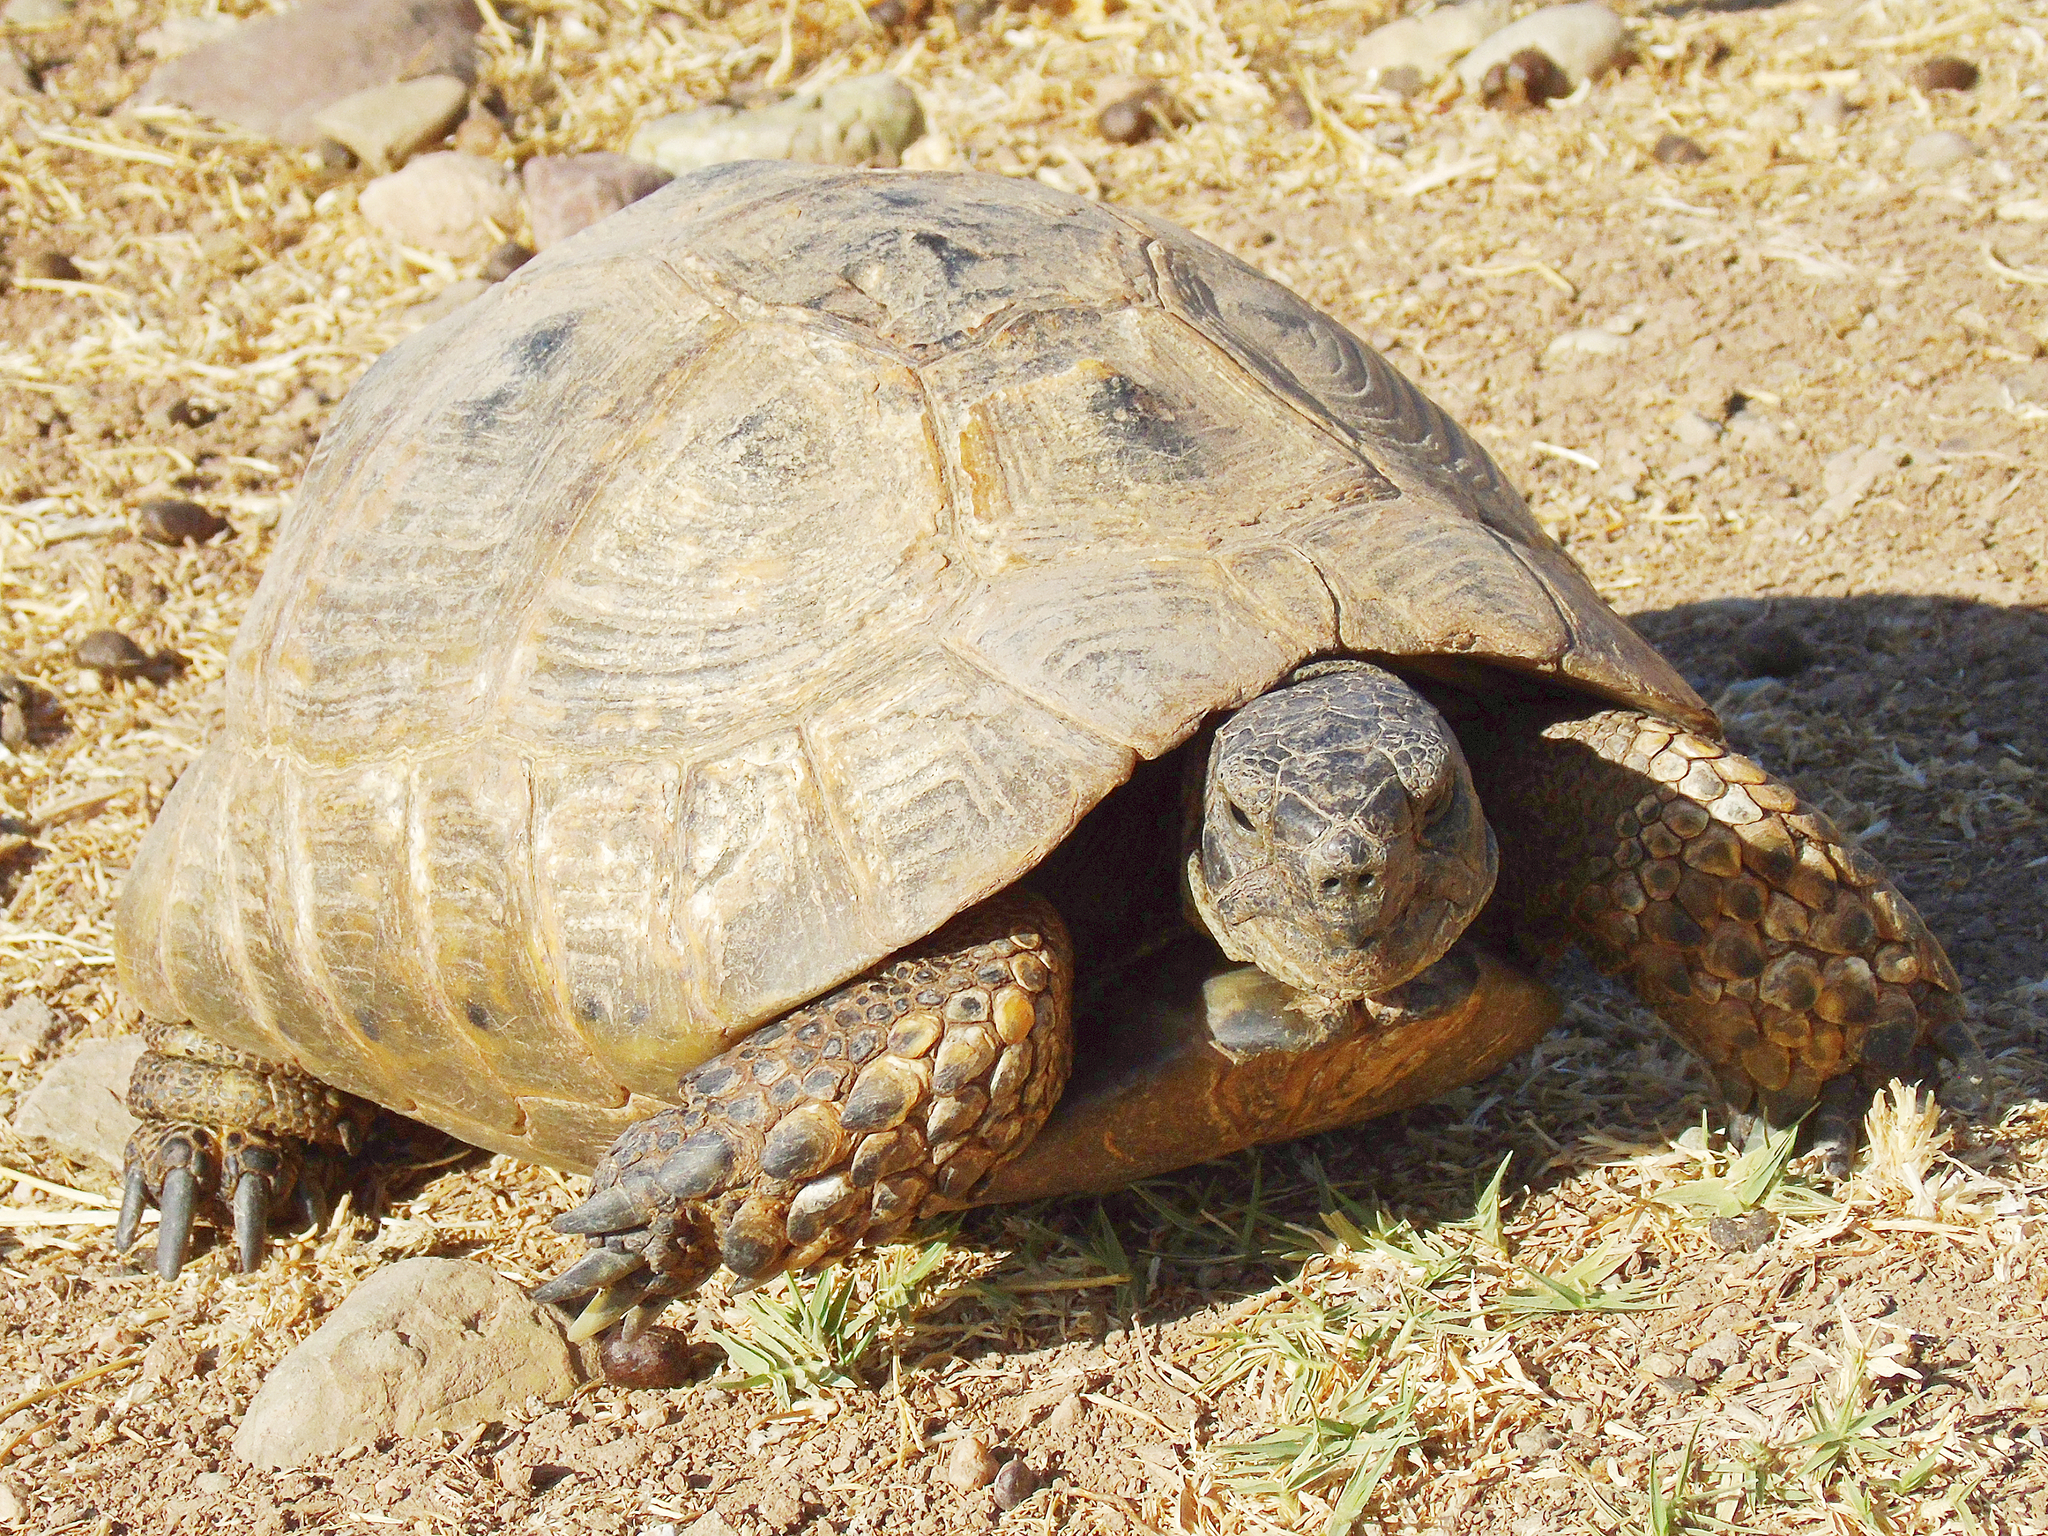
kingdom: Animalia
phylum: Chordata
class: Testudines
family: Testudinidae
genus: Testudo
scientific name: Testudo graeca
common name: Common tortoise
